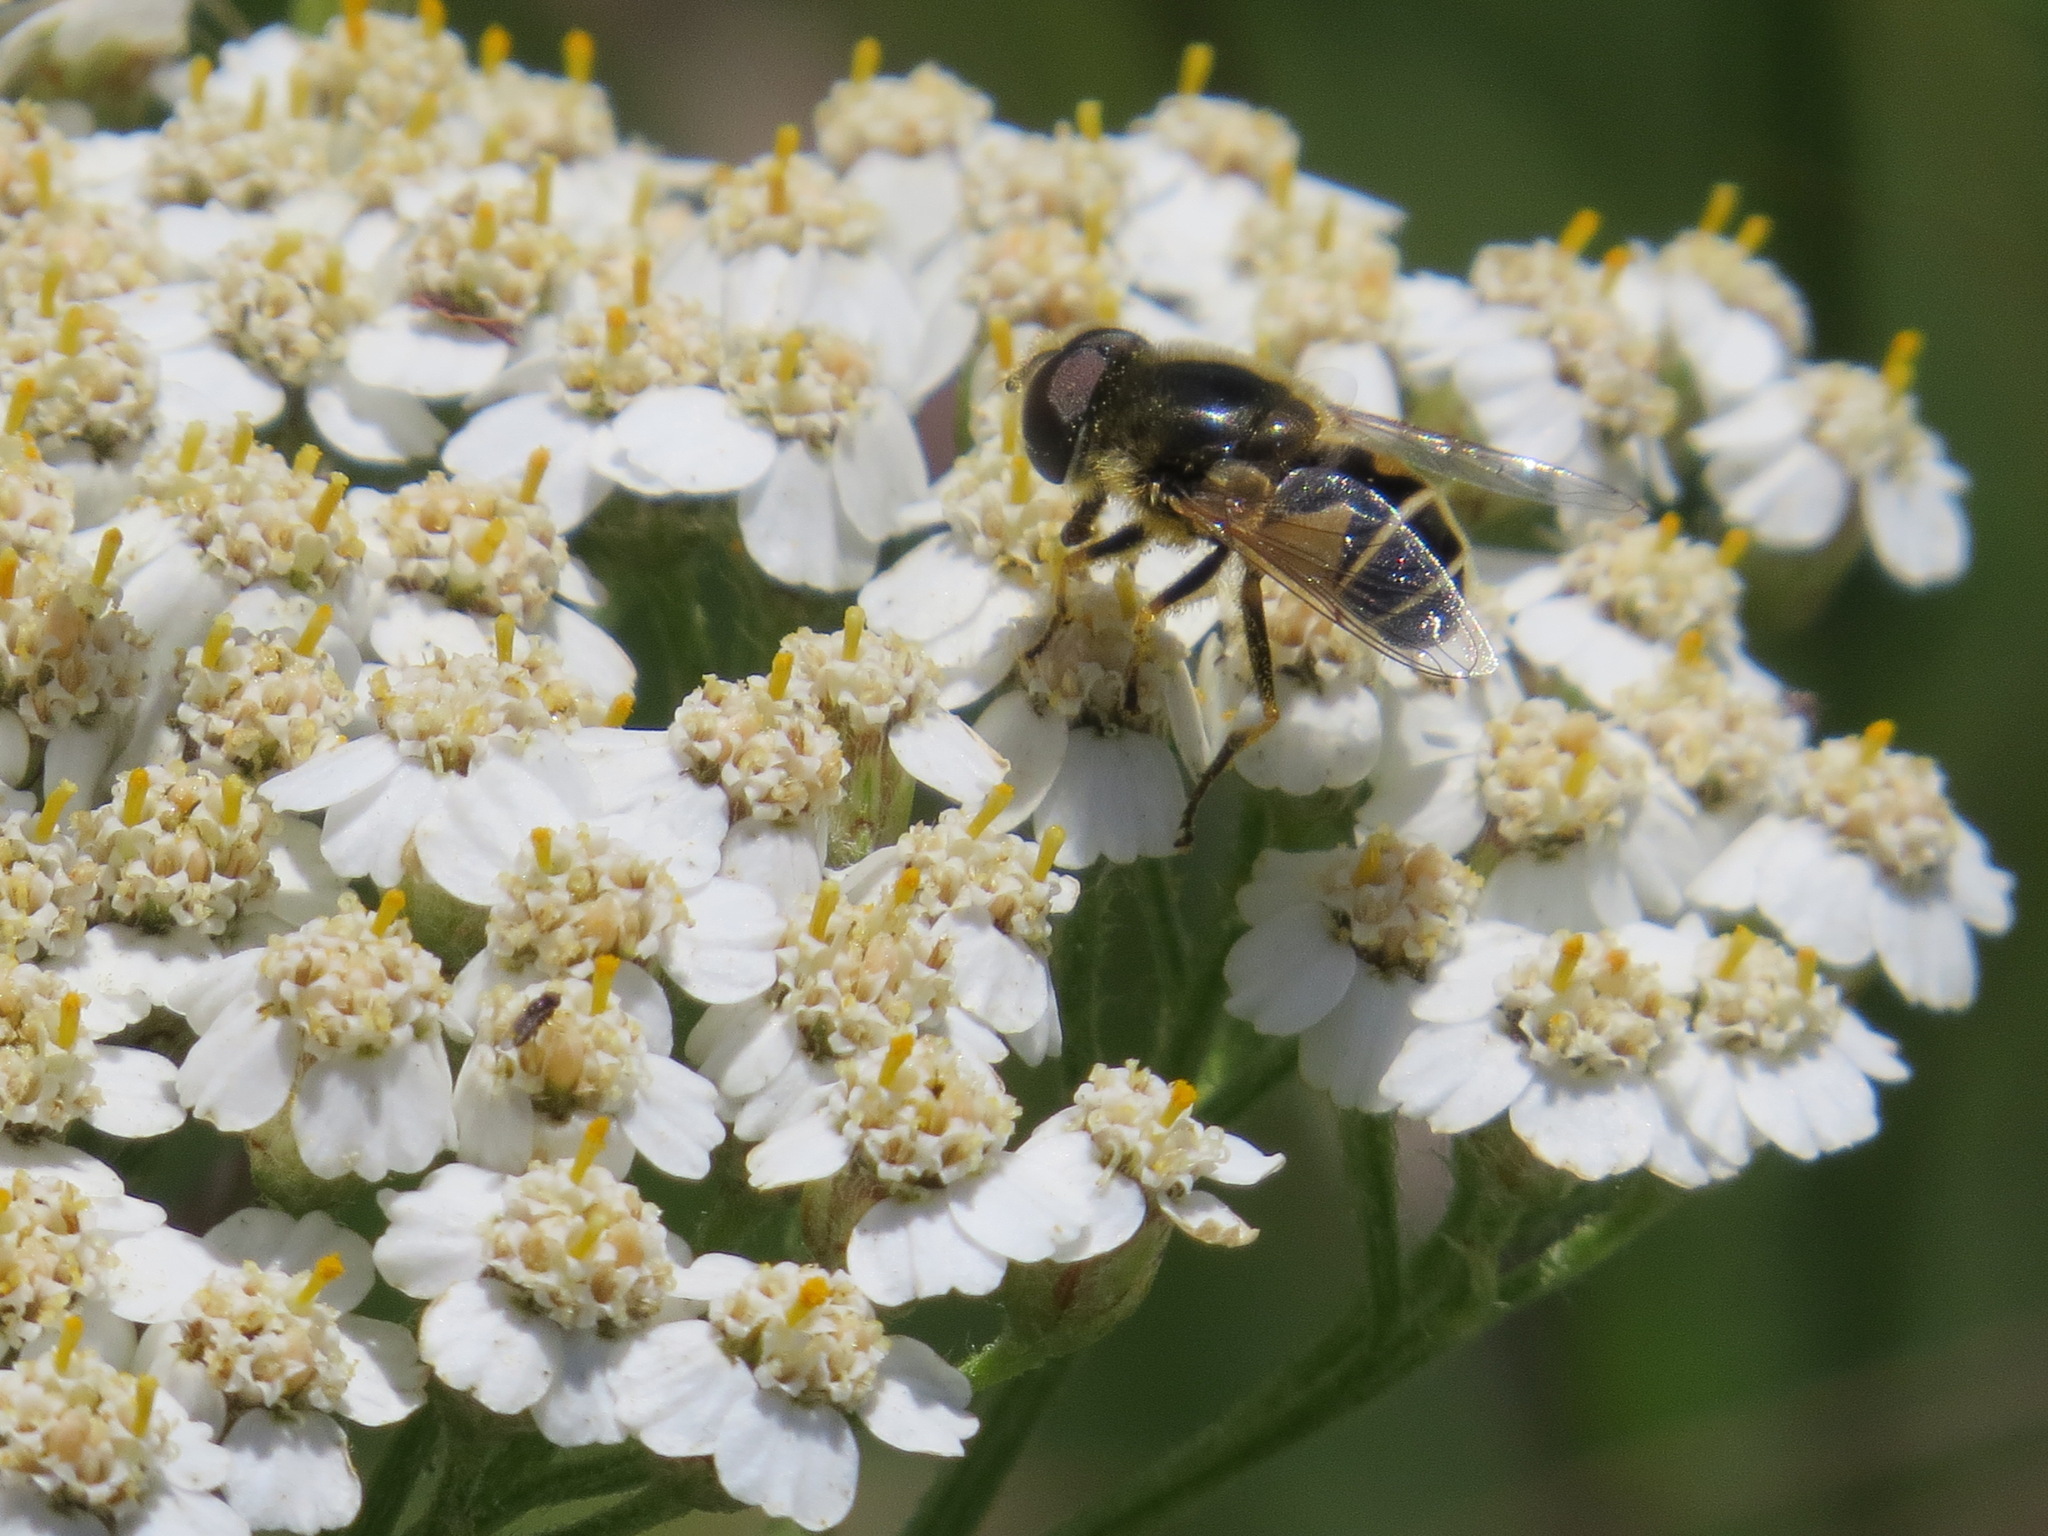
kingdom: Animalia
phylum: Arthropoda
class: Insecta
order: Diptera
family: Syrphidae
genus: Eristalis
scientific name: Eristalis hirta
